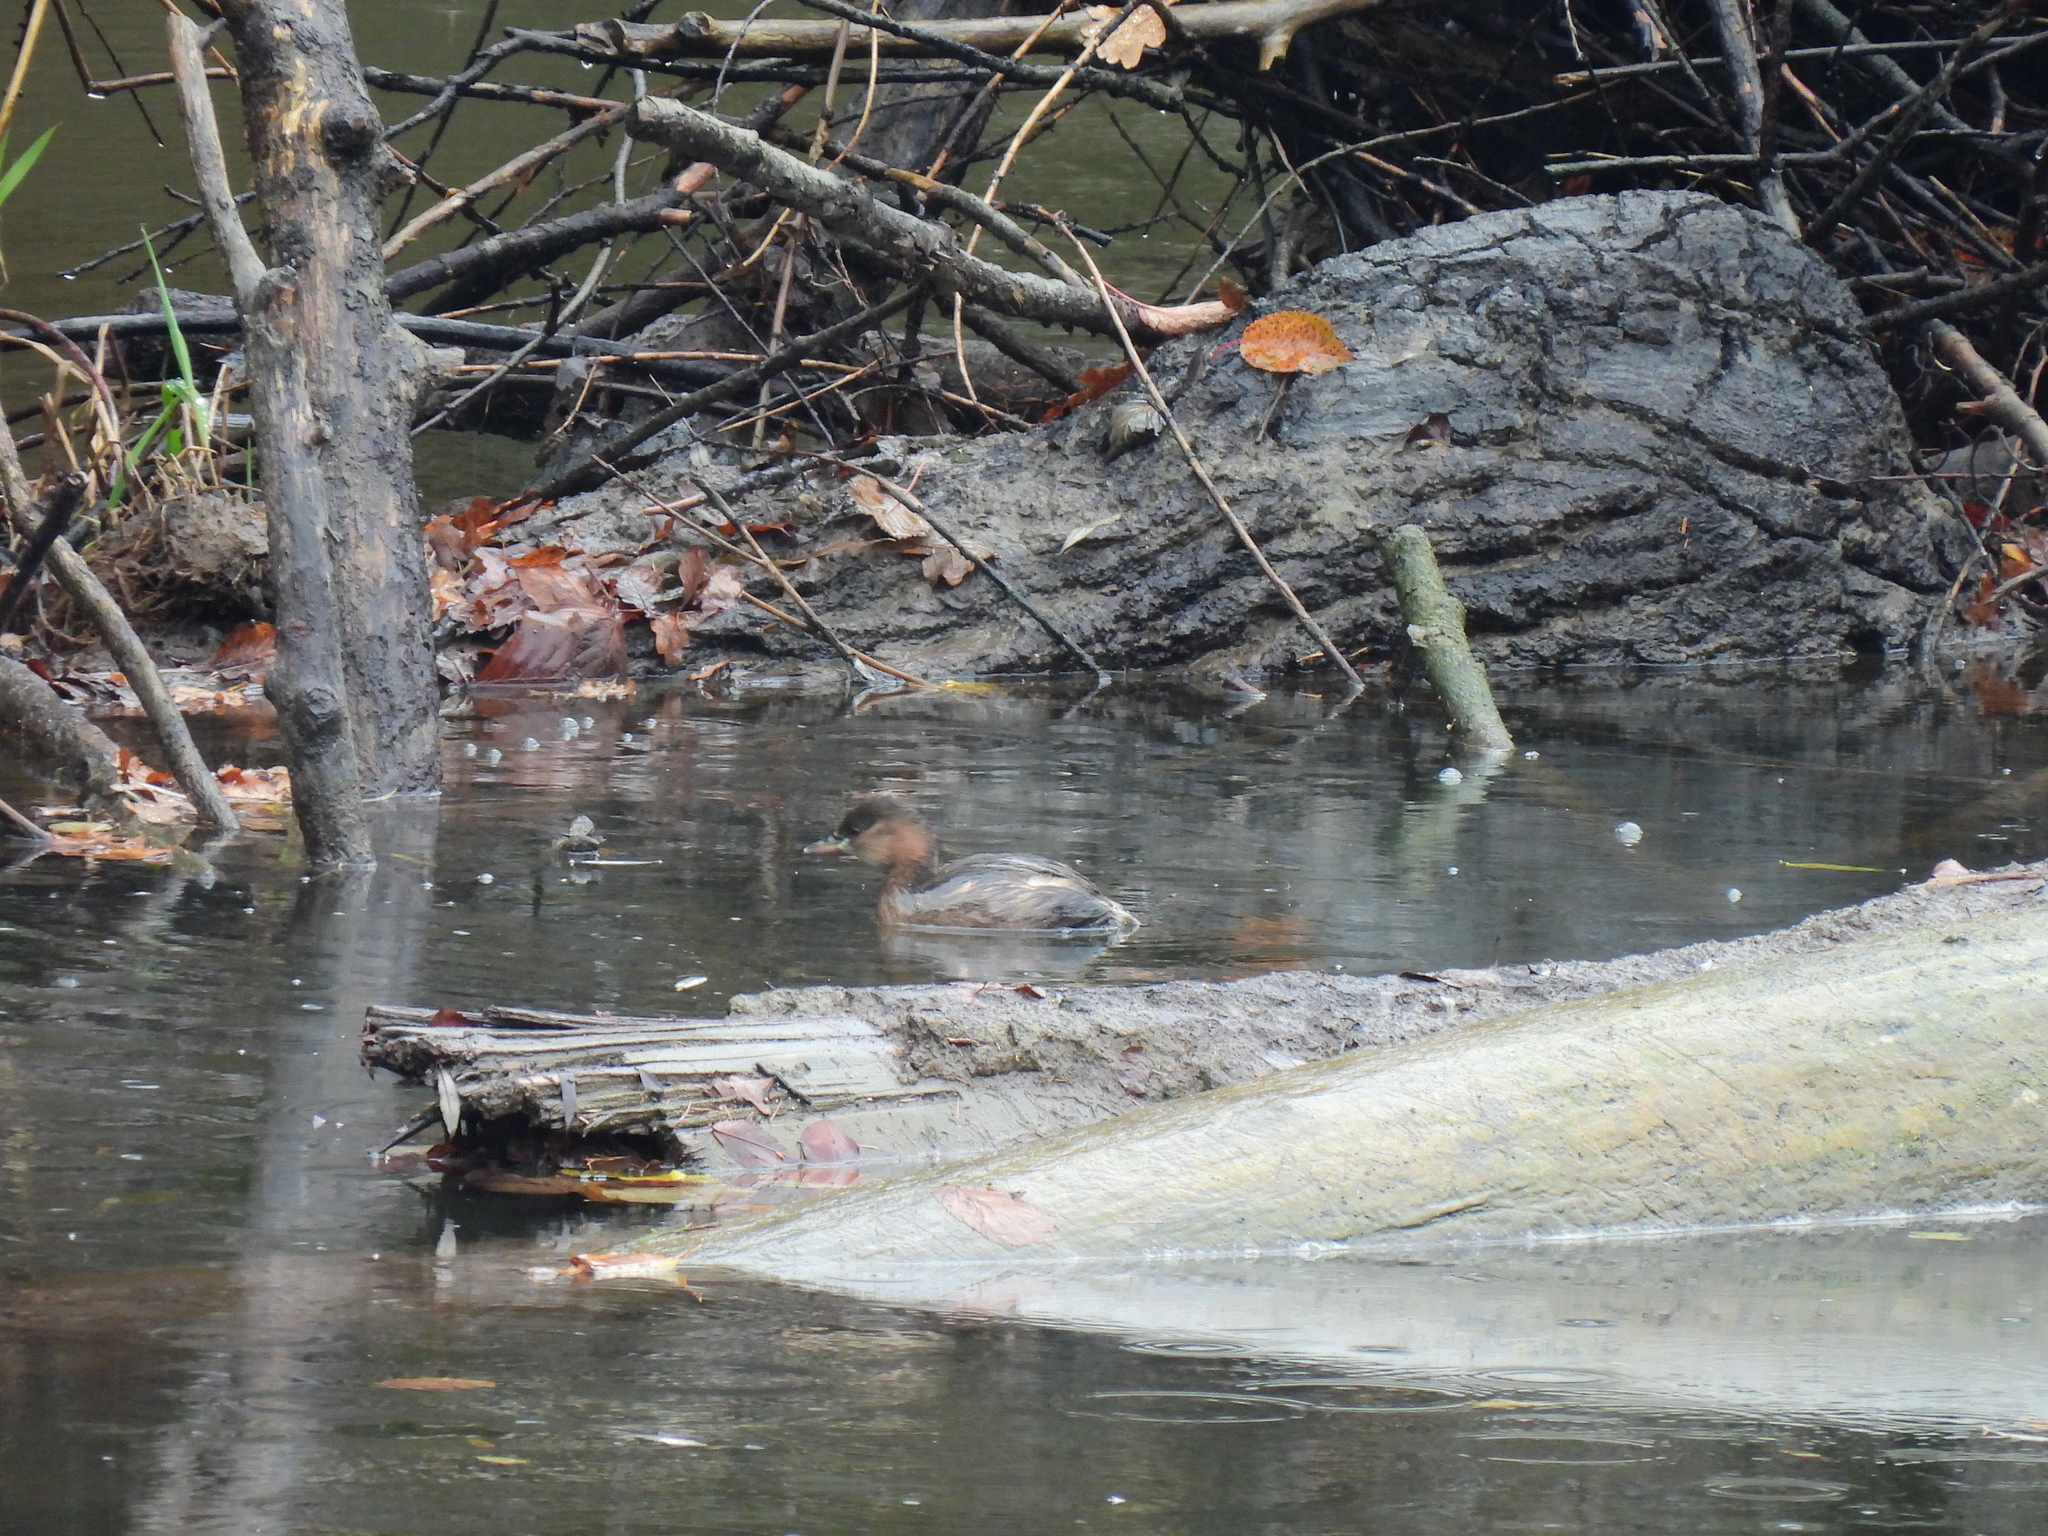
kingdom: Animalia
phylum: Chordata
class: Aves
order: Podicipediformes
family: Podicipedidae
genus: Tachybaptus
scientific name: Tachybaptus ruficollis
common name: Little grebe
